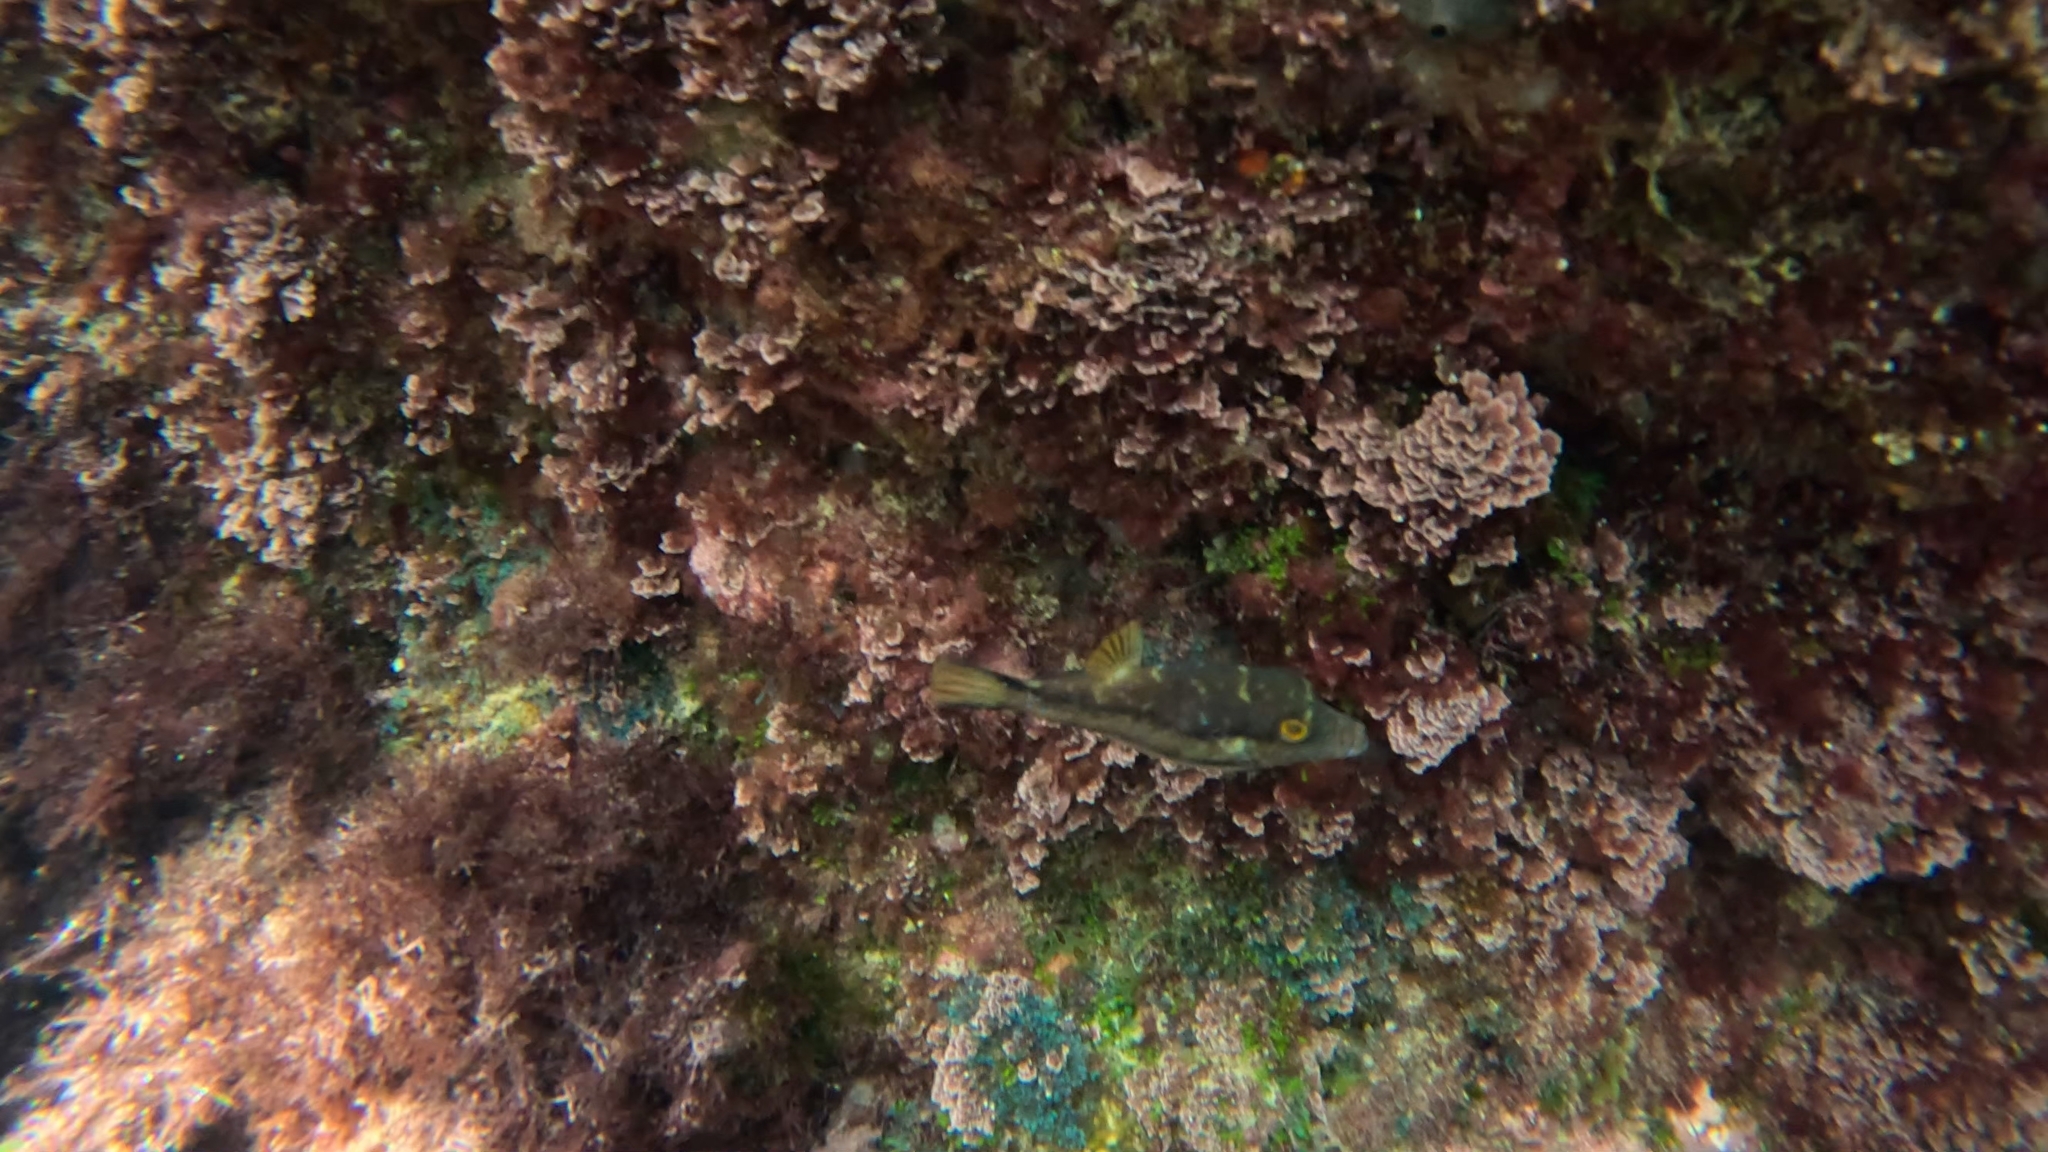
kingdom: Animalia
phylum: Chordata
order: Tetraodontiformes
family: Tetraodontidae
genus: Canthigaster
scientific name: Canthigaster capistrata
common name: Macaronesian sharpnose-puffer
